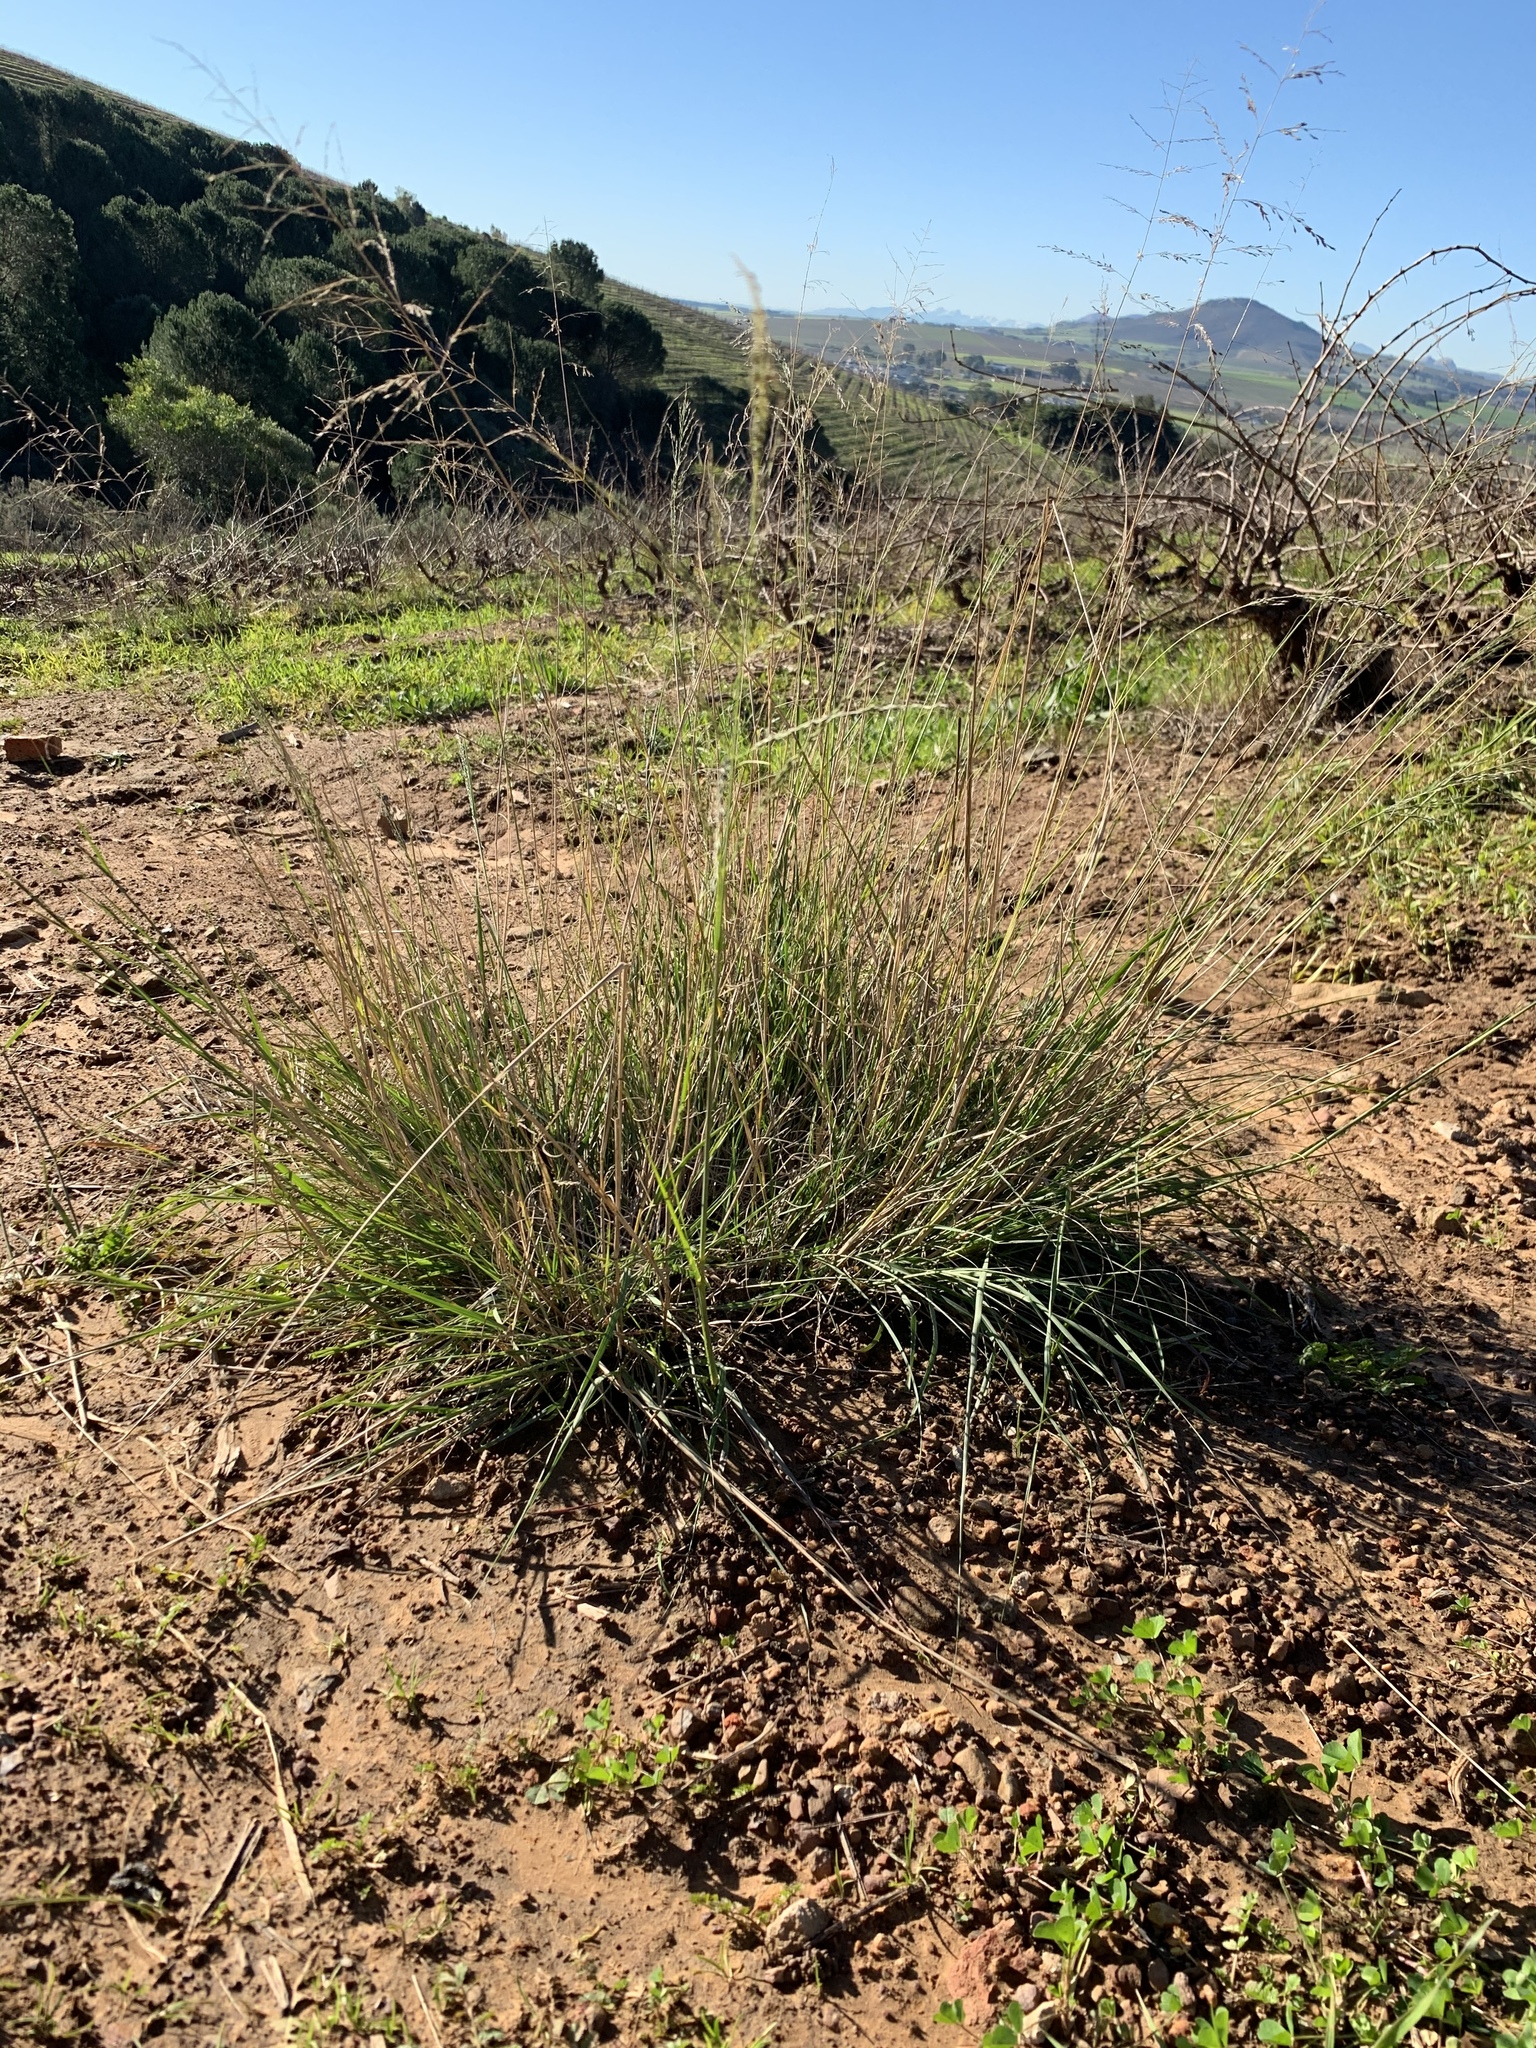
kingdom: Plantae
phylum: Tracheophyta
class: Liliopsida
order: Poales
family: Poaceae
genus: Eragrostis
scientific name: Eragrostis curvula
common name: African love-grass
